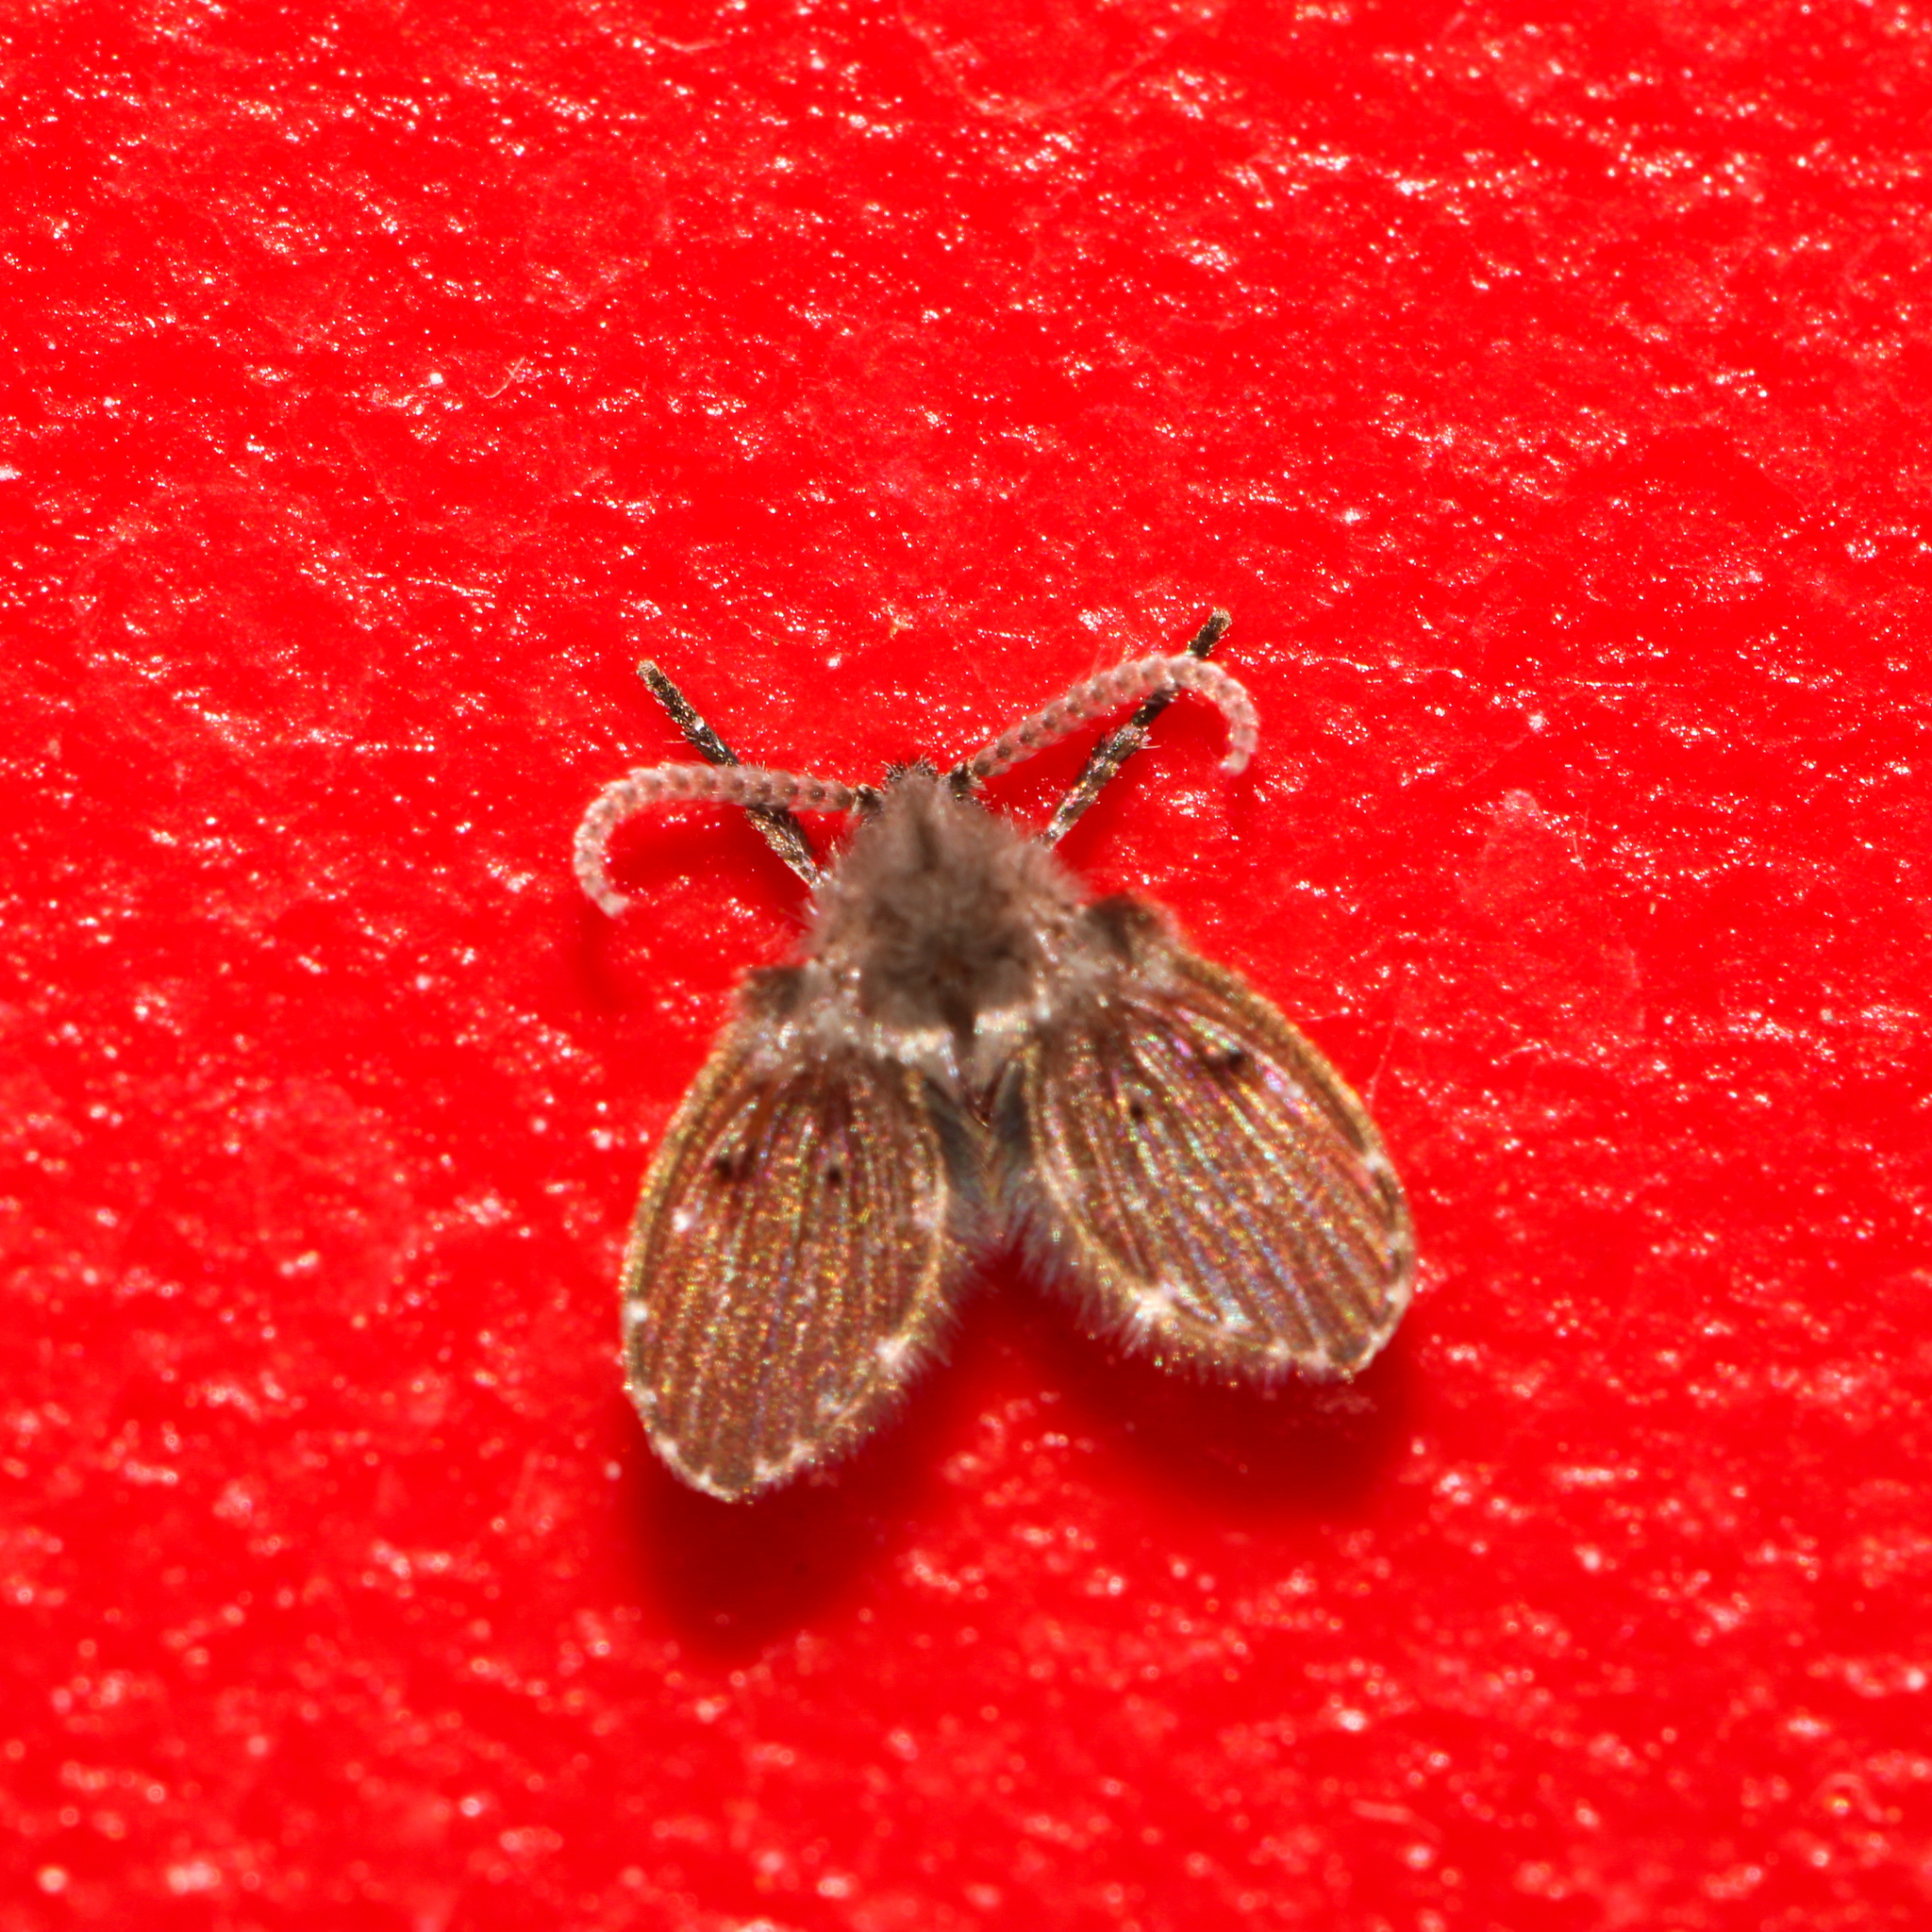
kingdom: Animalia
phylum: Arthropoda
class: Insecta
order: Diptera
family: Psychodidae
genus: Clogmia
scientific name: Clogmia albipunctatus
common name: White-spotted moth fly
